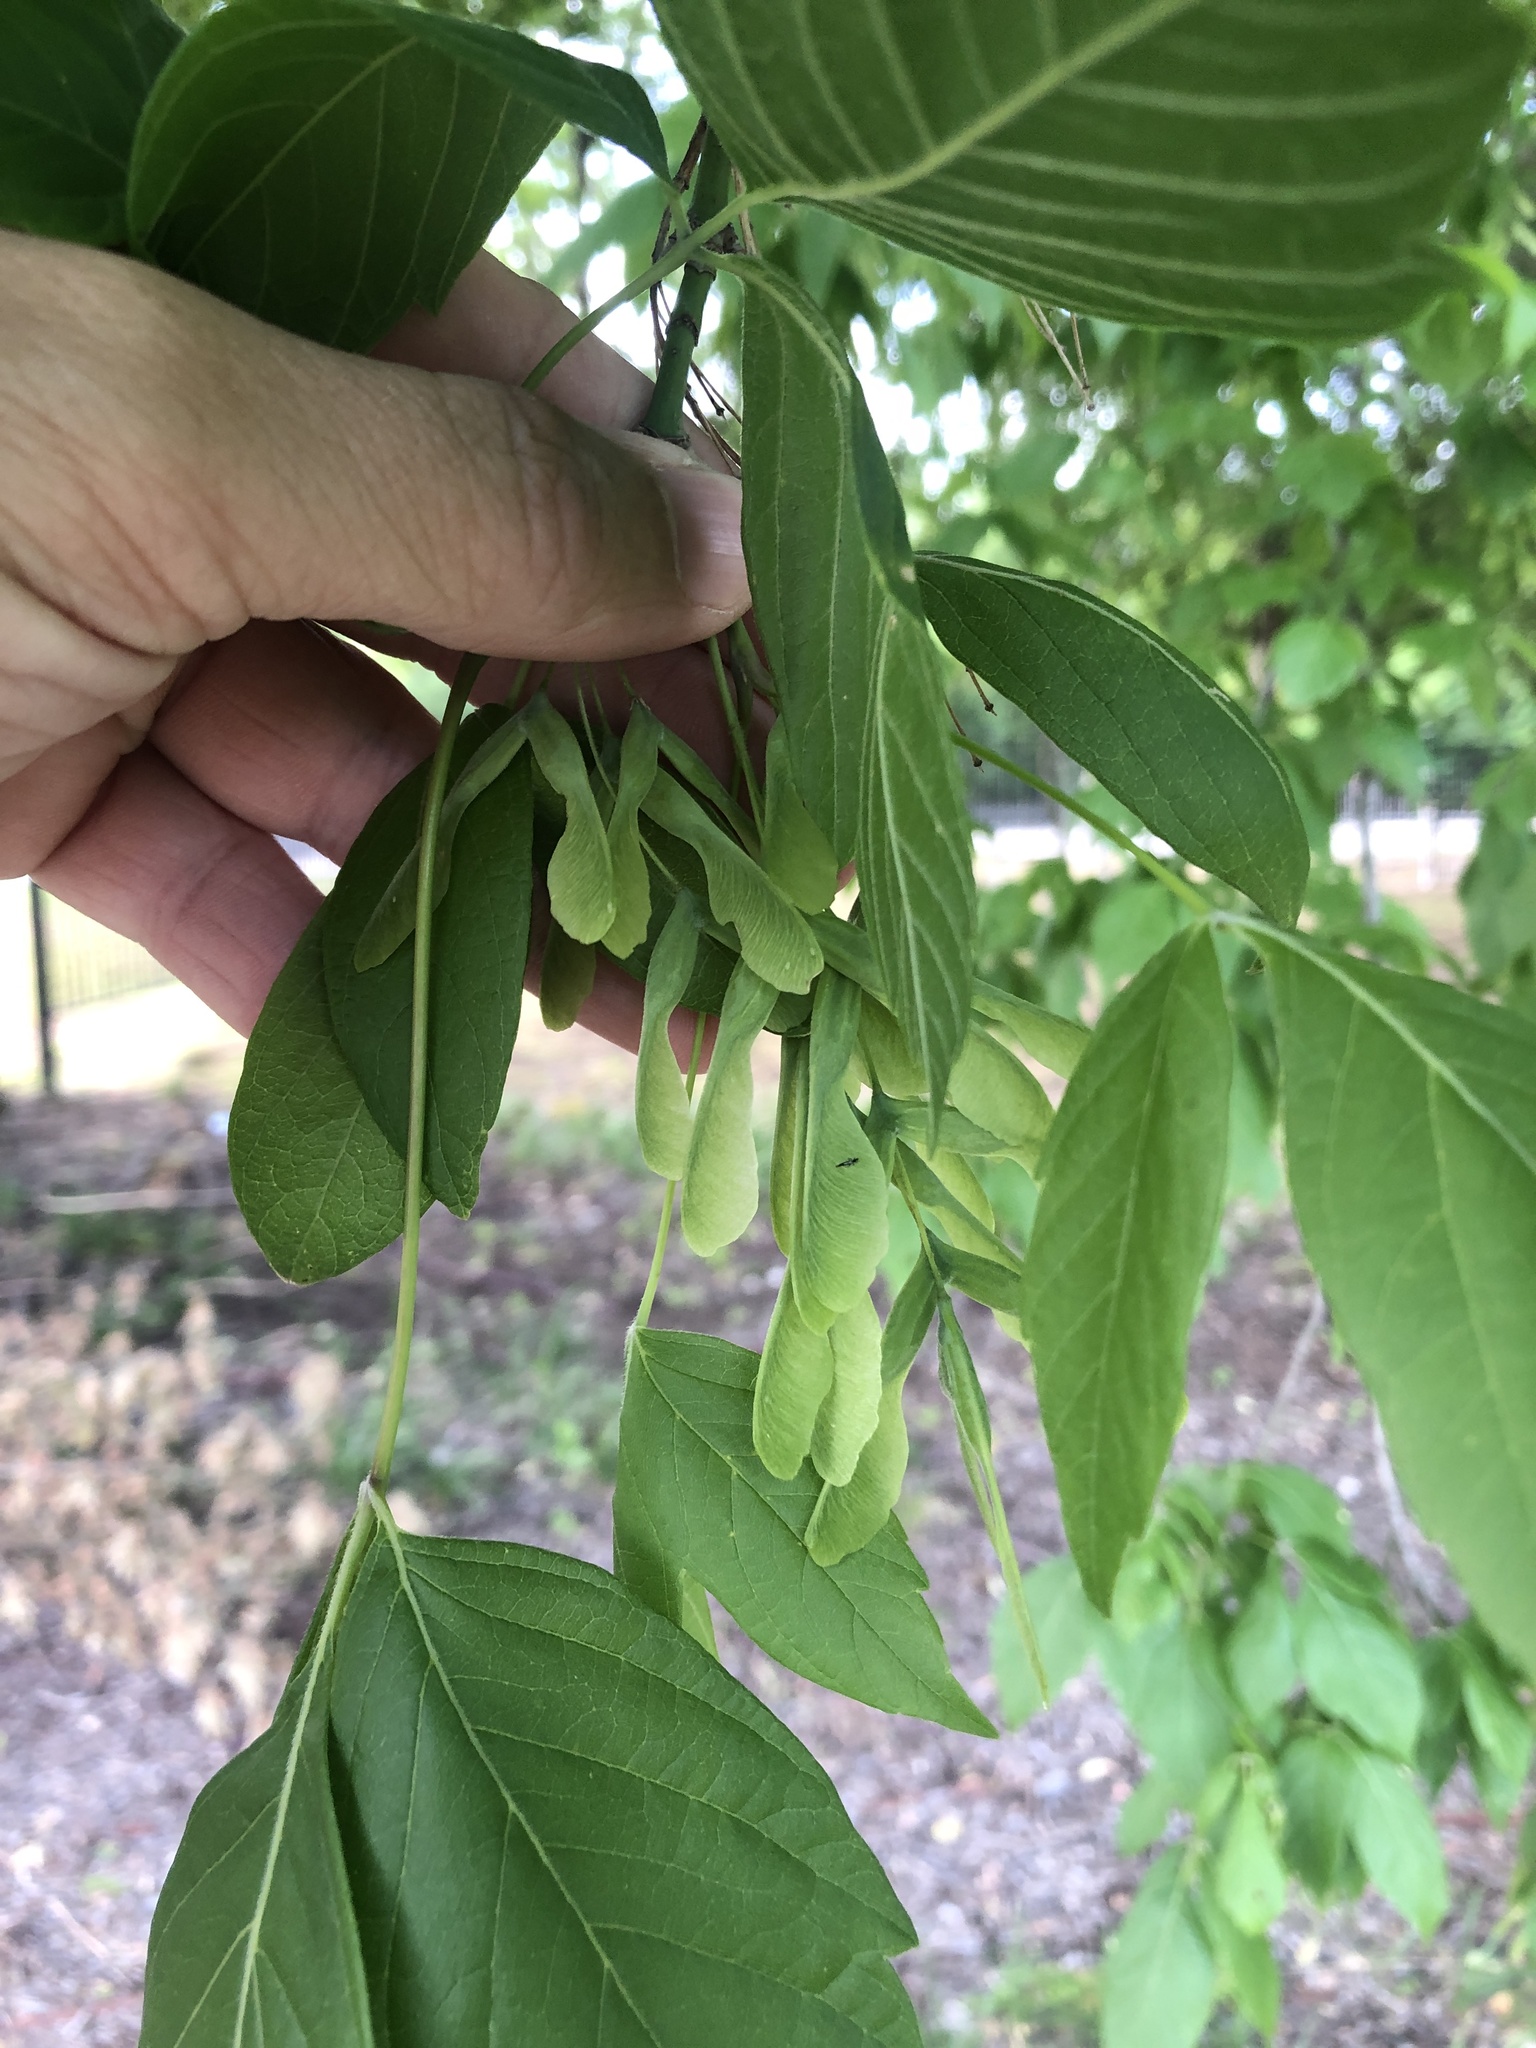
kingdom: Plantae
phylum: Tracheophyta
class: Magnoliopsida
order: Sapindales
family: Sapindaceae
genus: Acer
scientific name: Acer negundo
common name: Ashleaf maple
